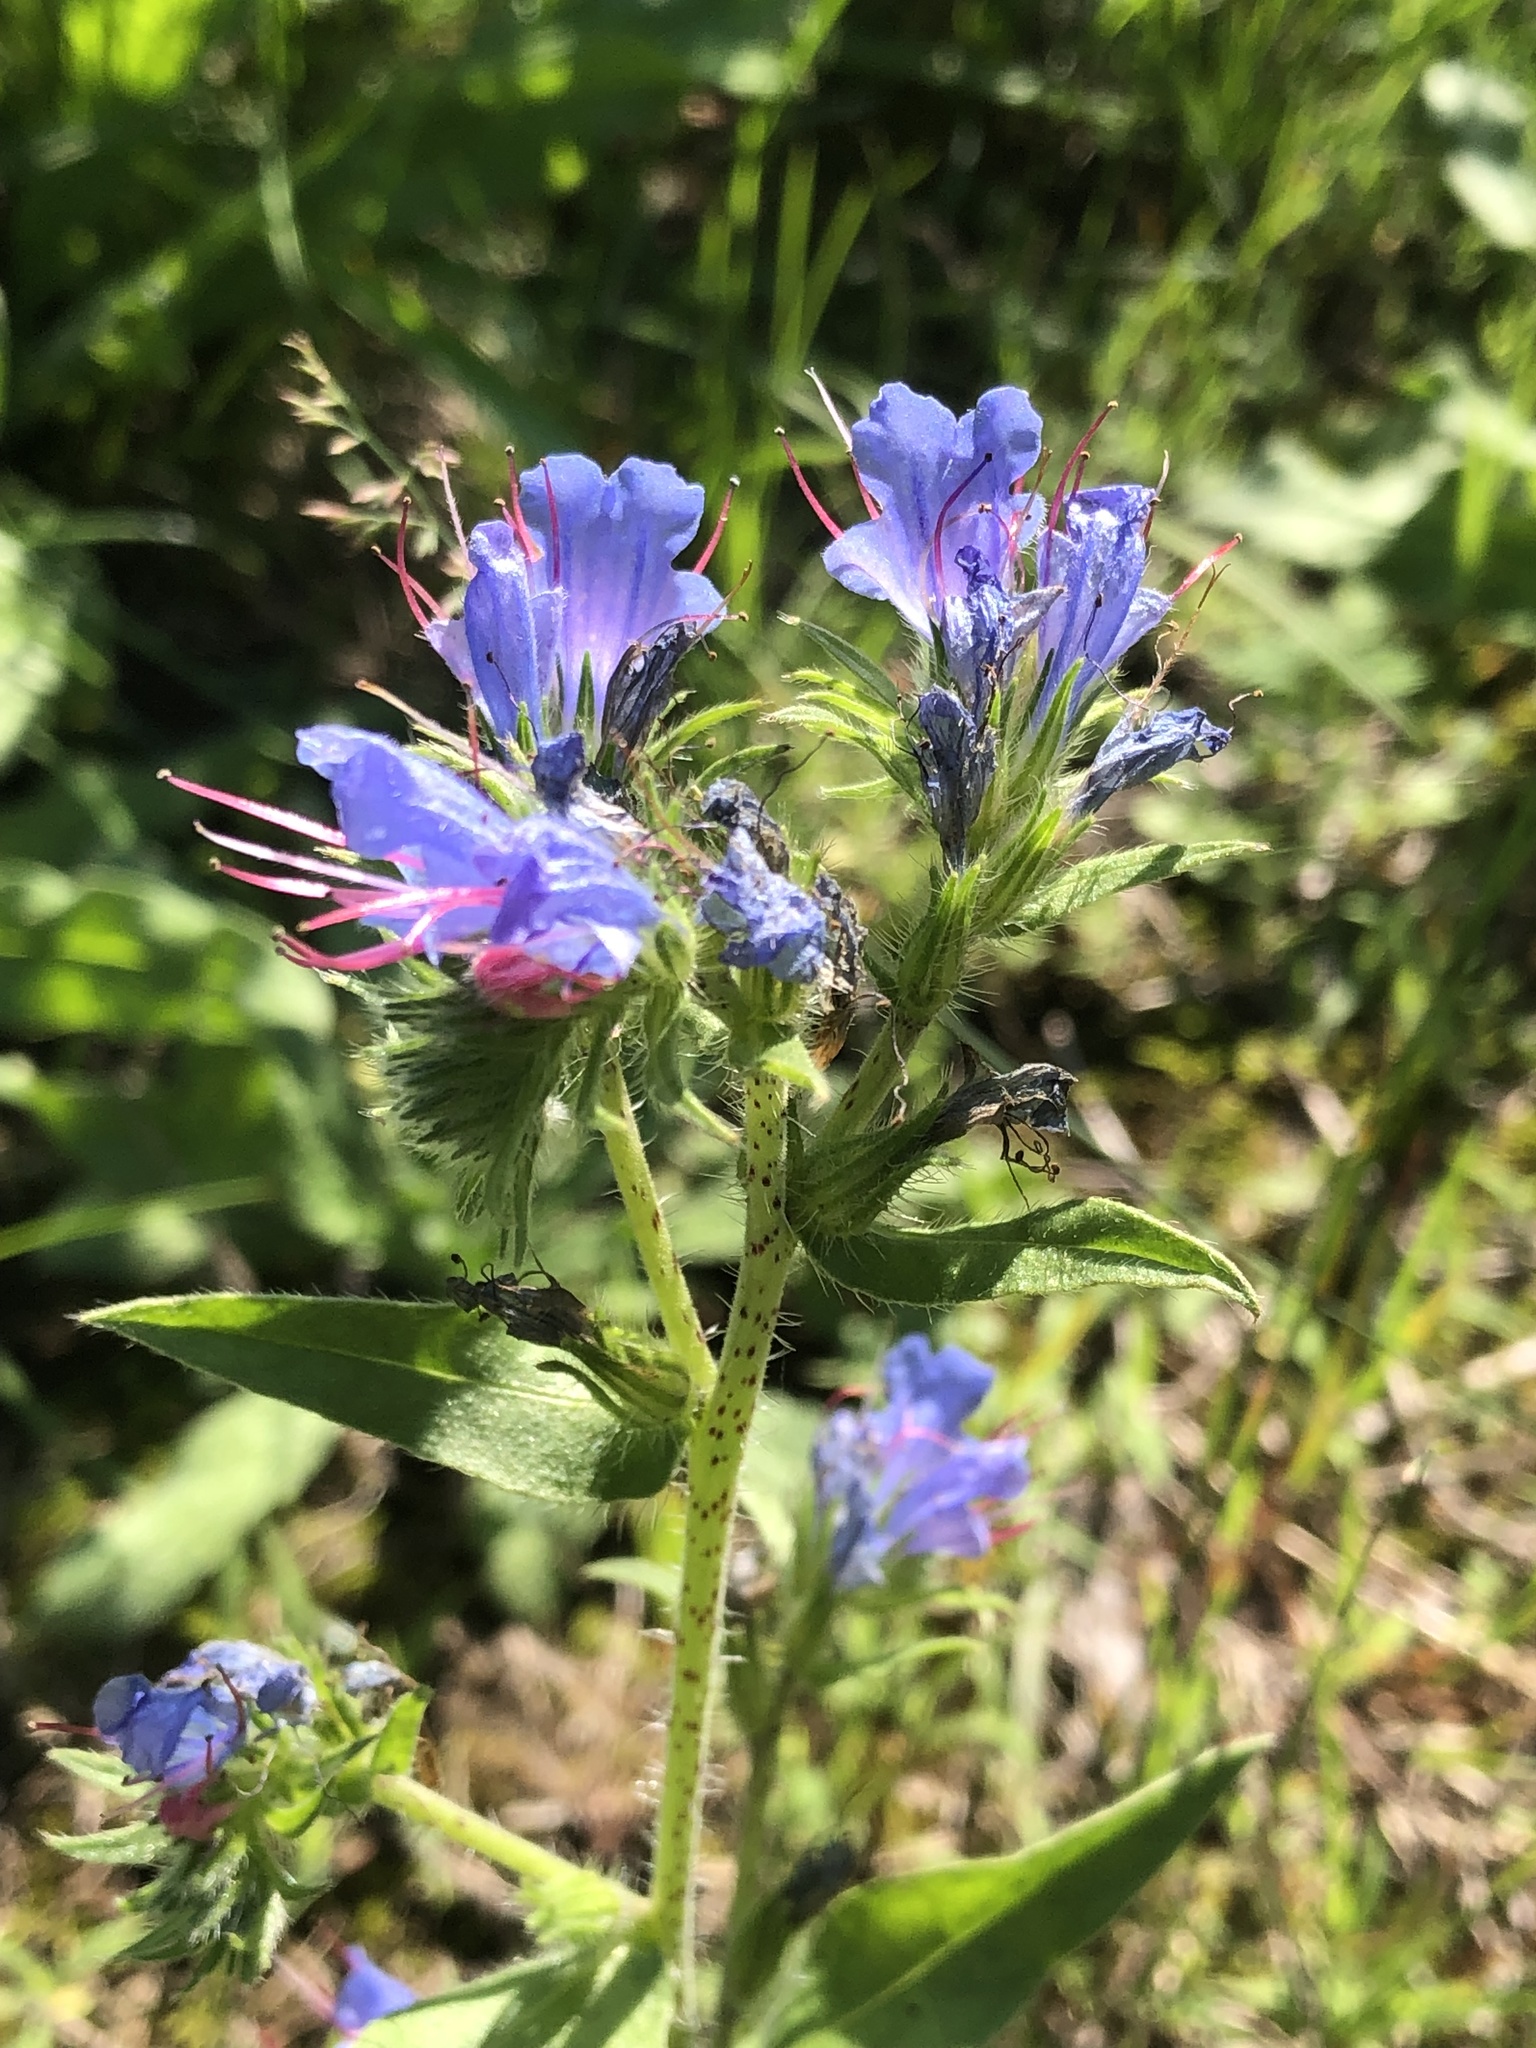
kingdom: Plantae
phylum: Tracheophyta
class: Magnoliopsida
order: Boraginales
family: Boraginaceae
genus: Echium
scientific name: Echium vulgare
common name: Common viper's bugloss
